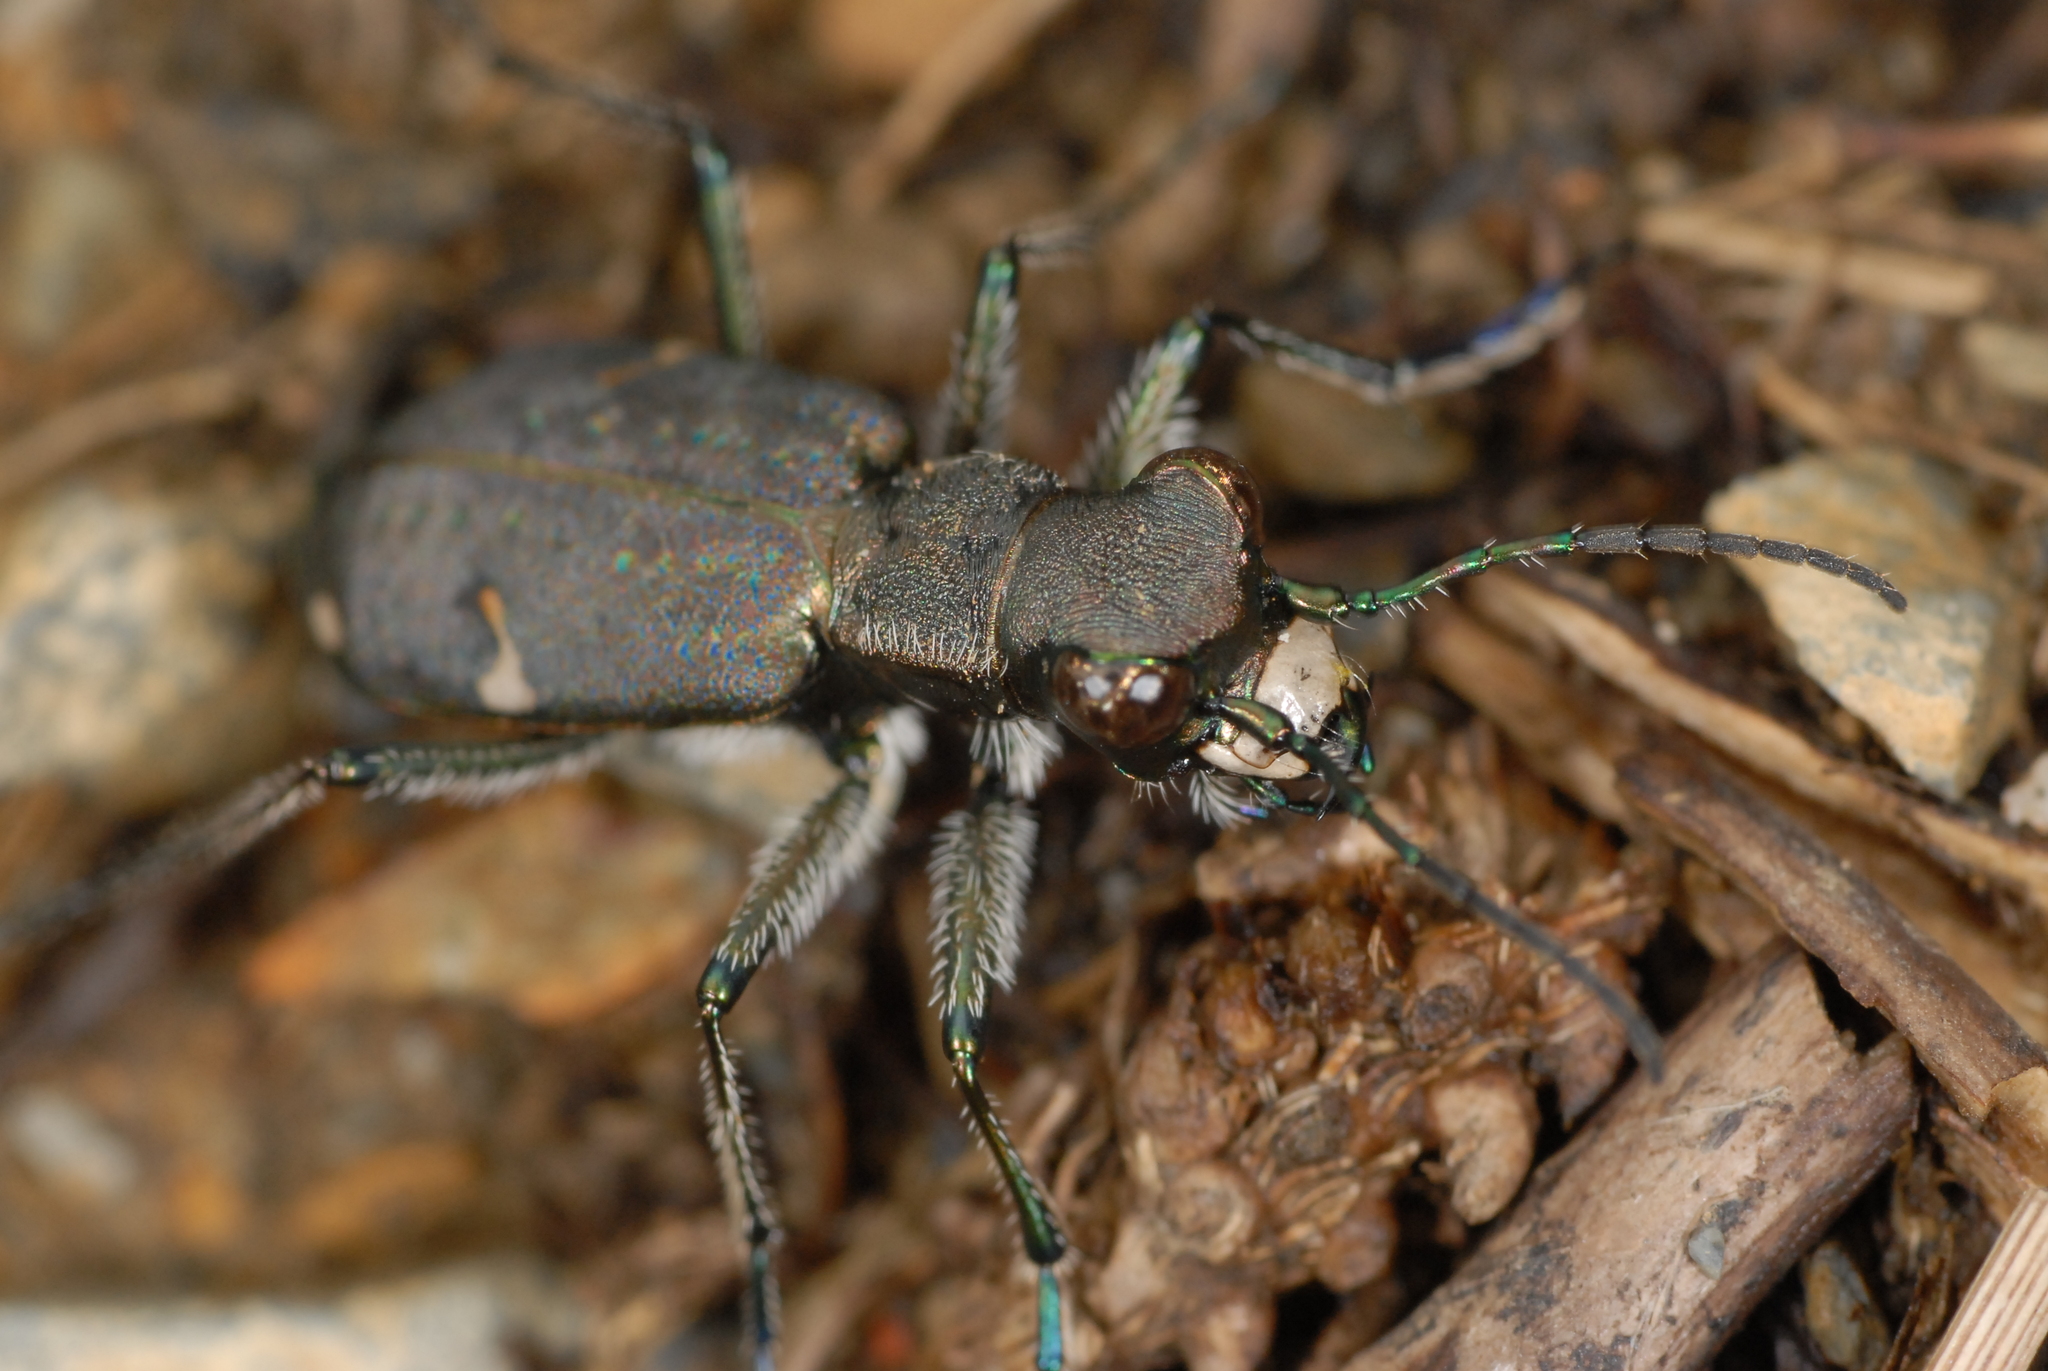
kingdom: Animalia
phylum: Arthropoda
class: Insecta
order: Coleoptera
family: Carabidae
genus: Cylindera
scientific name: Cylindera shirakii
